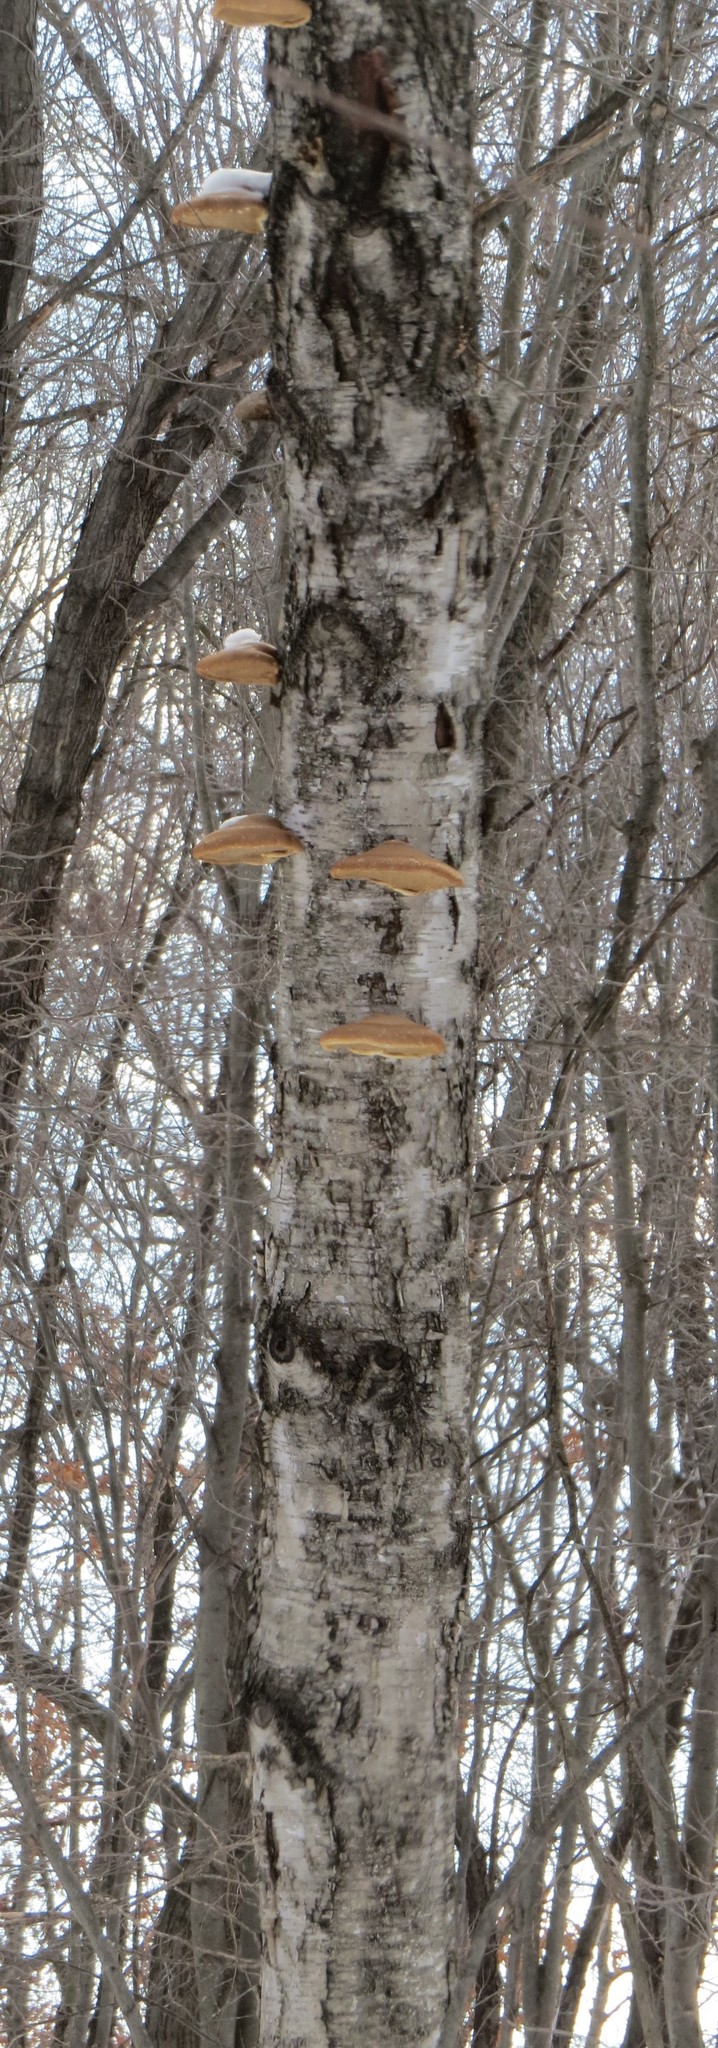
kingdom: Fungi
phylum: Basidiomycota
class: Agaricomycetes
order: Polyporales
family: Fomitopsidaceae
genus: Fomitopsis
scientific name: Fomitopsis betulina
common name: Birch polypore
